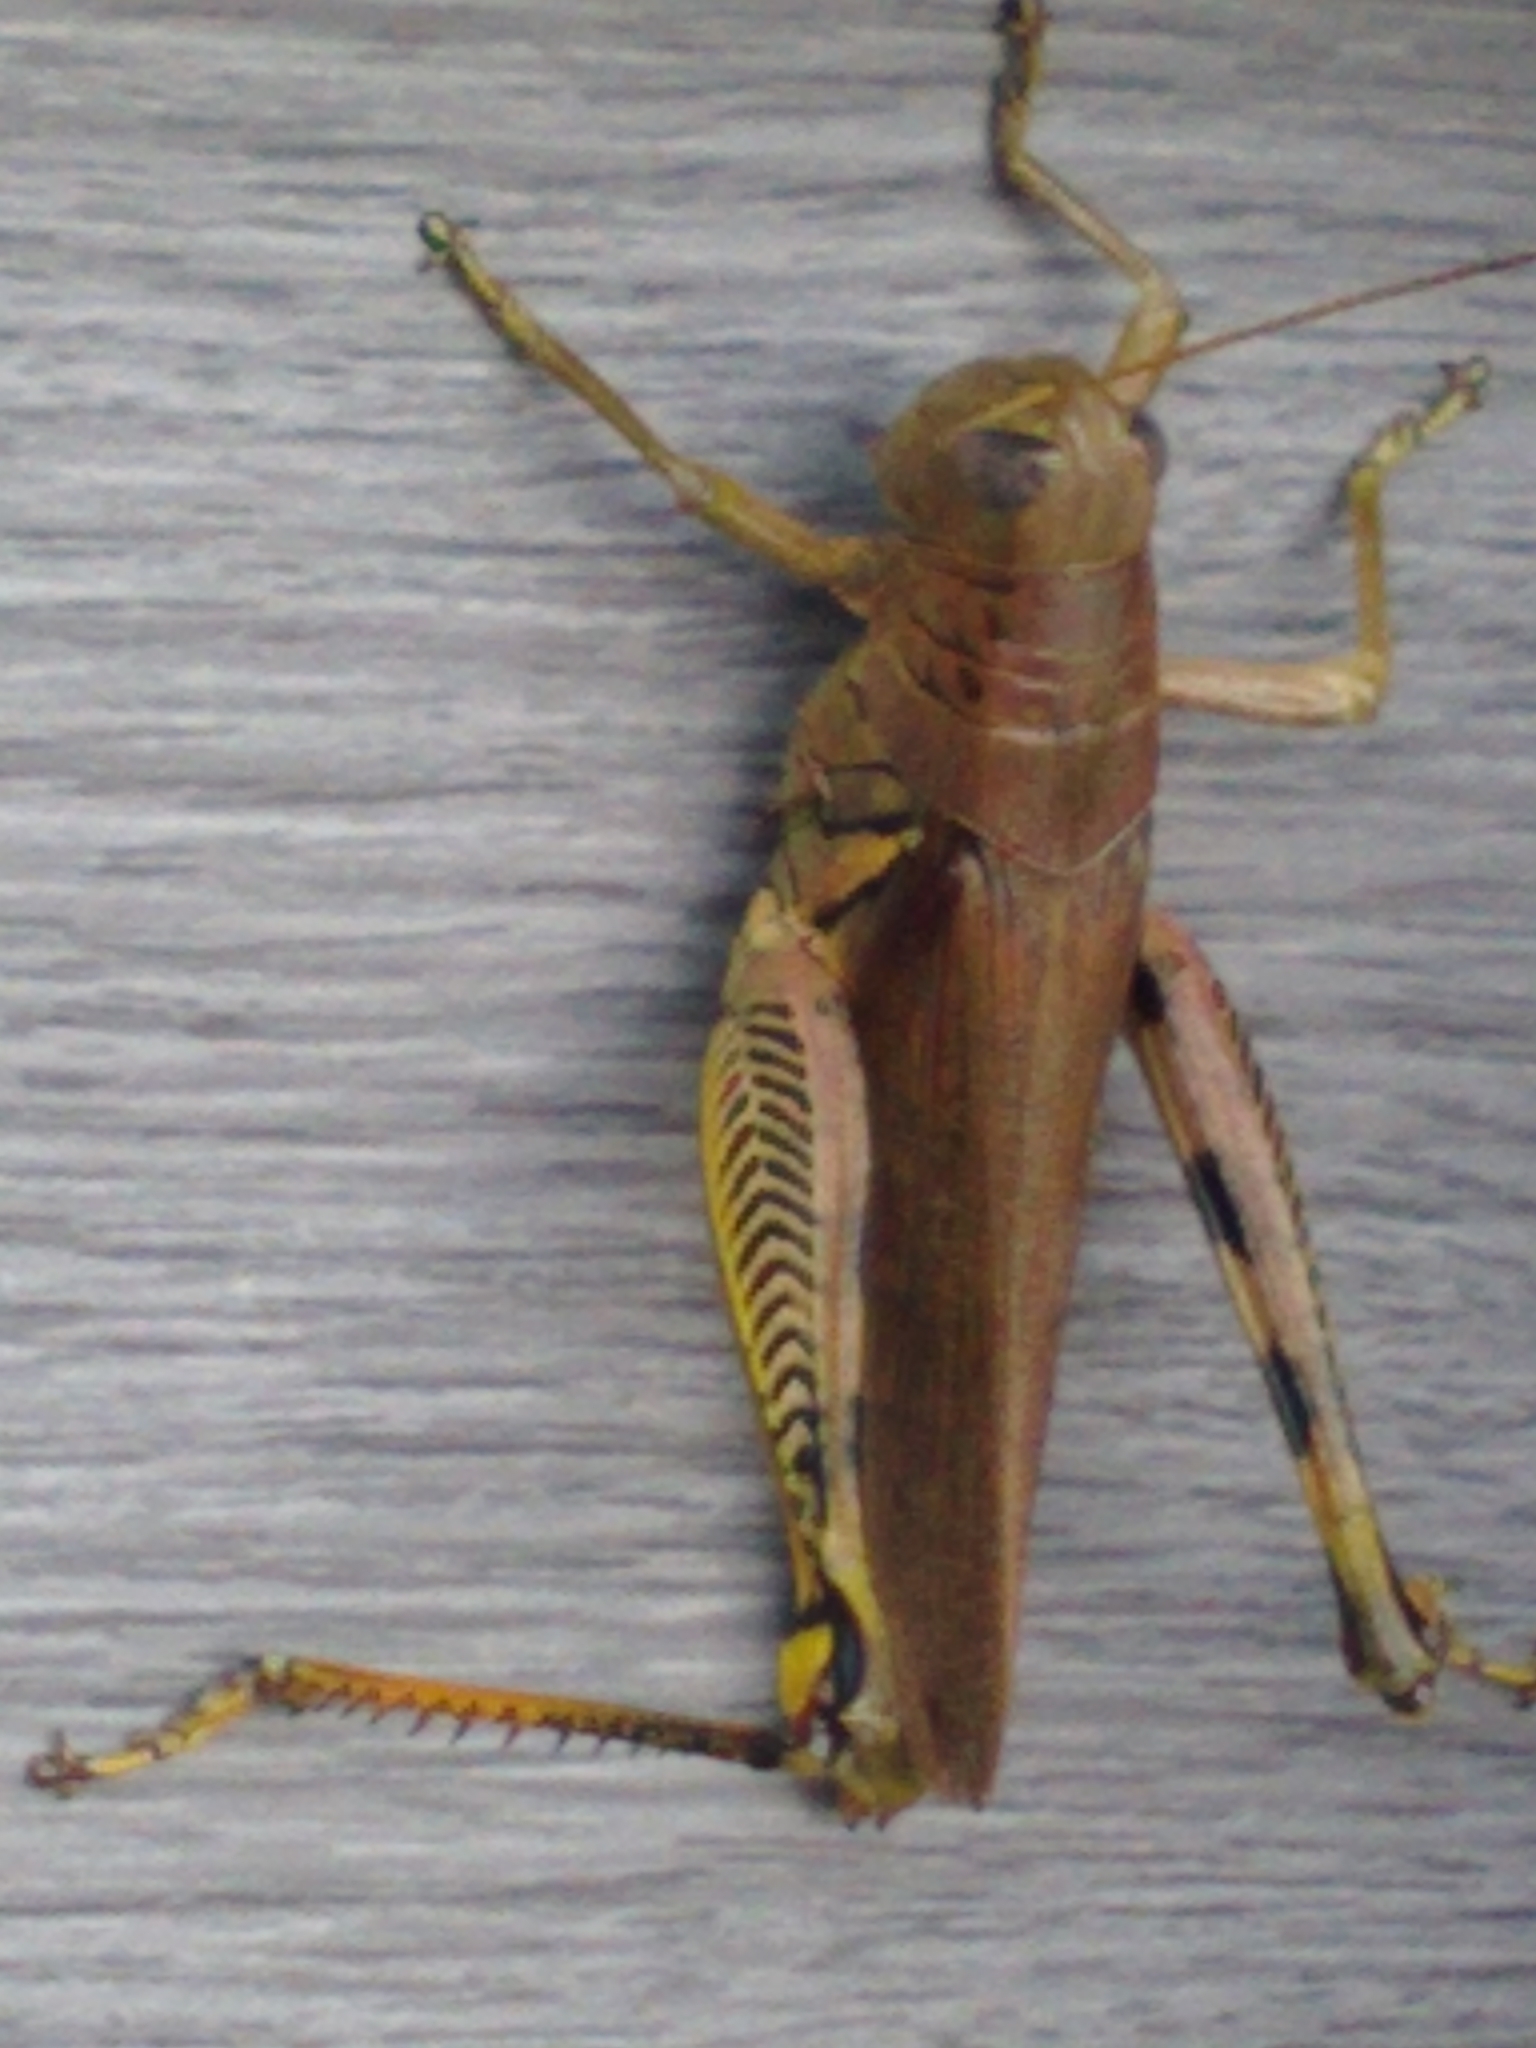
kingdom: Animalia
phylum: Arthropoda
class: Insecta
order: Orthoptera
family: Acrididae
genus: Melanoplus
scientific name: Melanoplus differentialis
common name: Differential grasshopper
